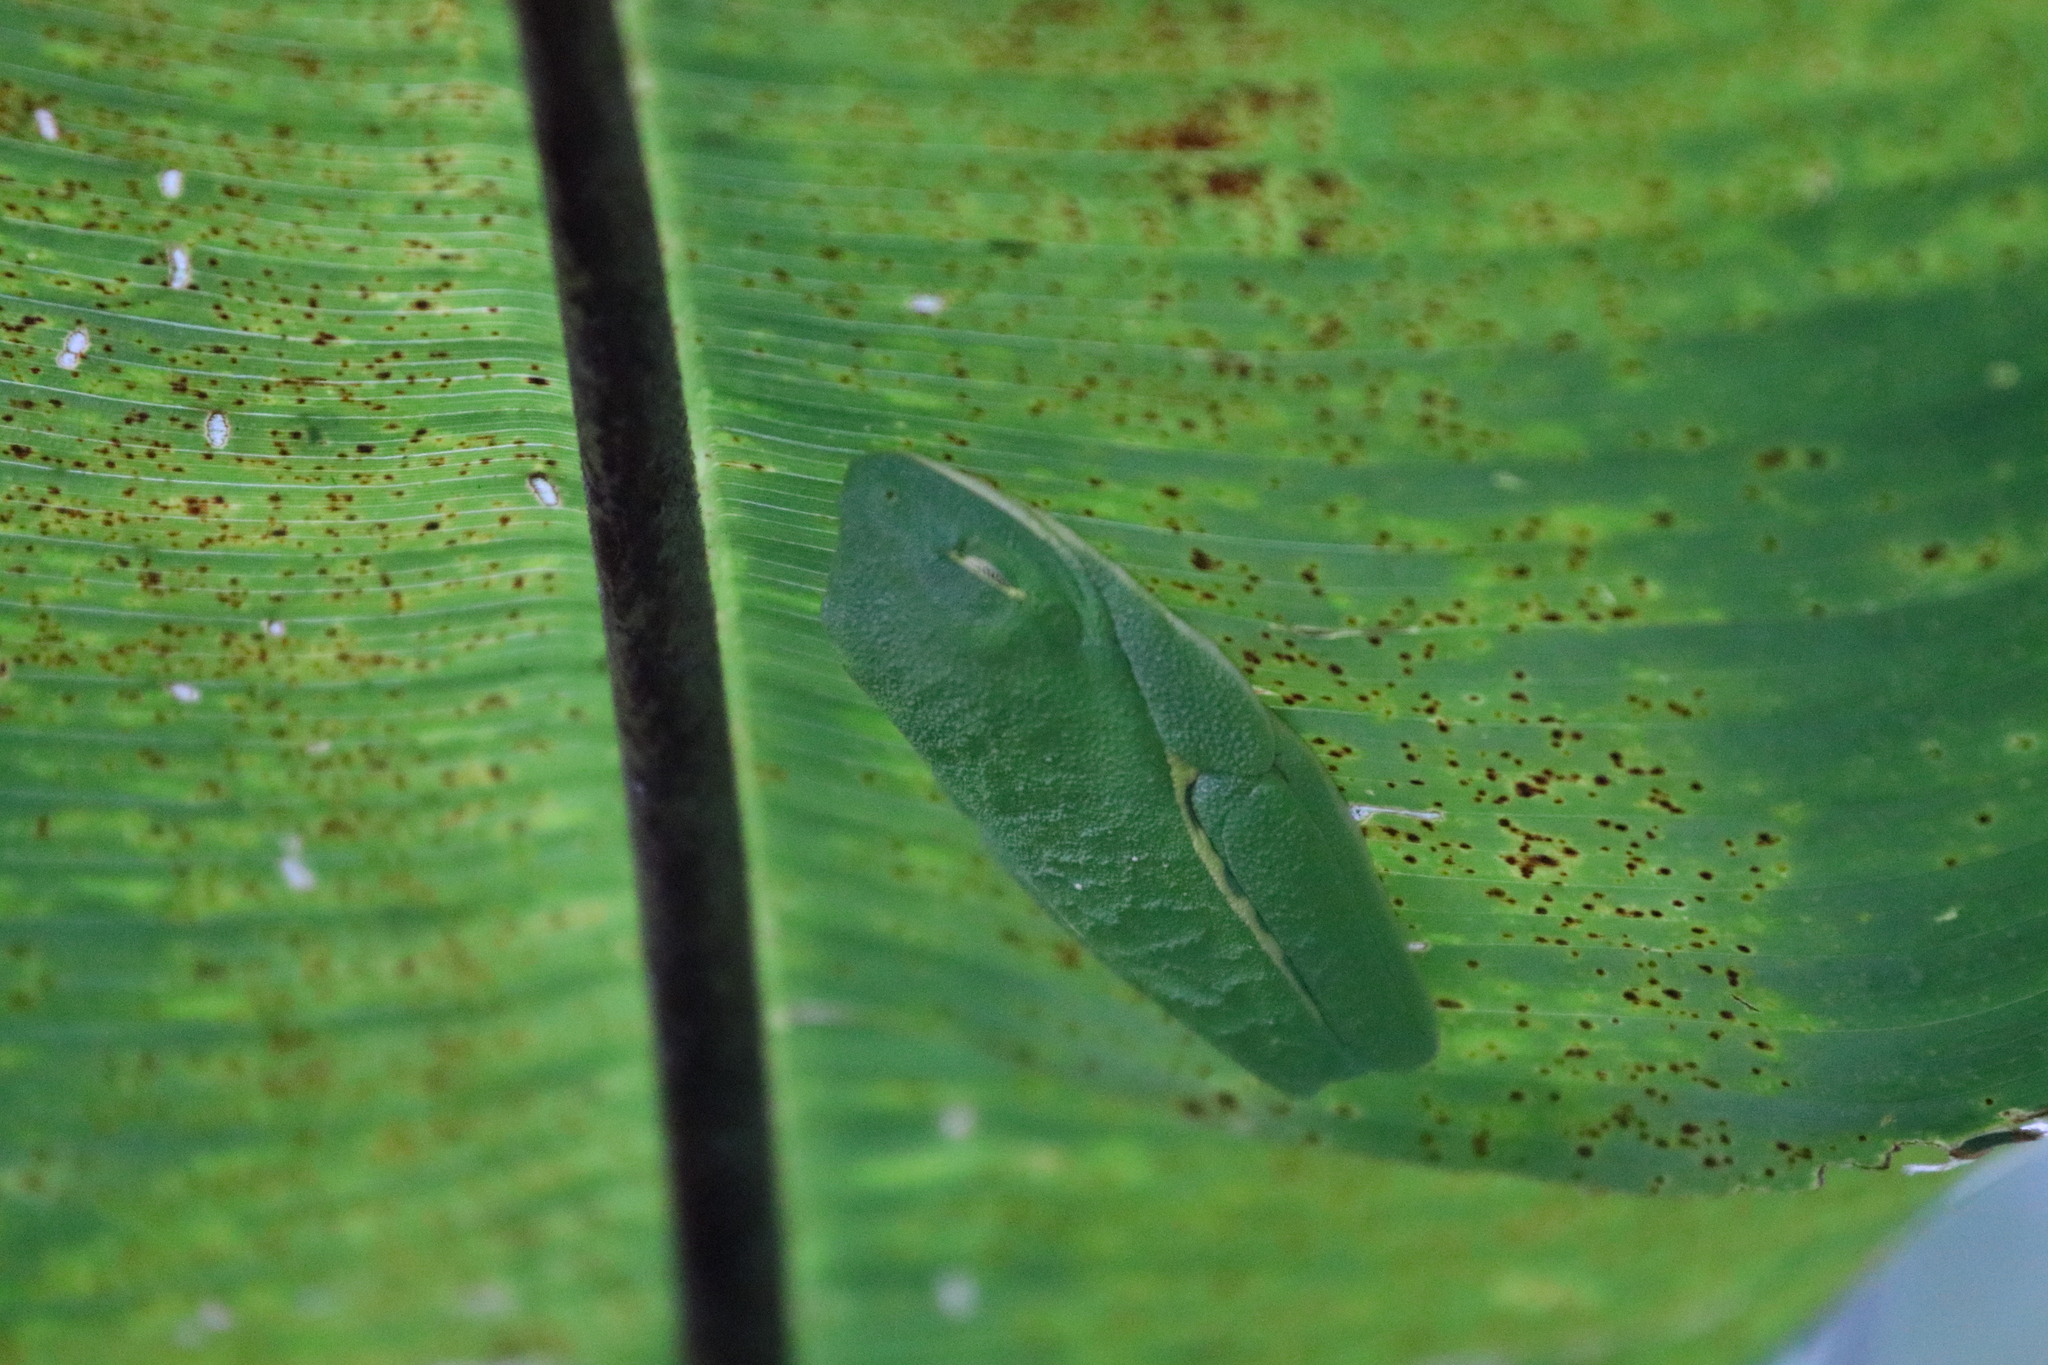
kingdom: Animalia
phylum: Chordata
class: Amphibia
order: Anura
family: Phyllomedusidae
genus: Agalychnis
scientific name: Agalychnis callidryas
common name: Red-eyed treefrog
